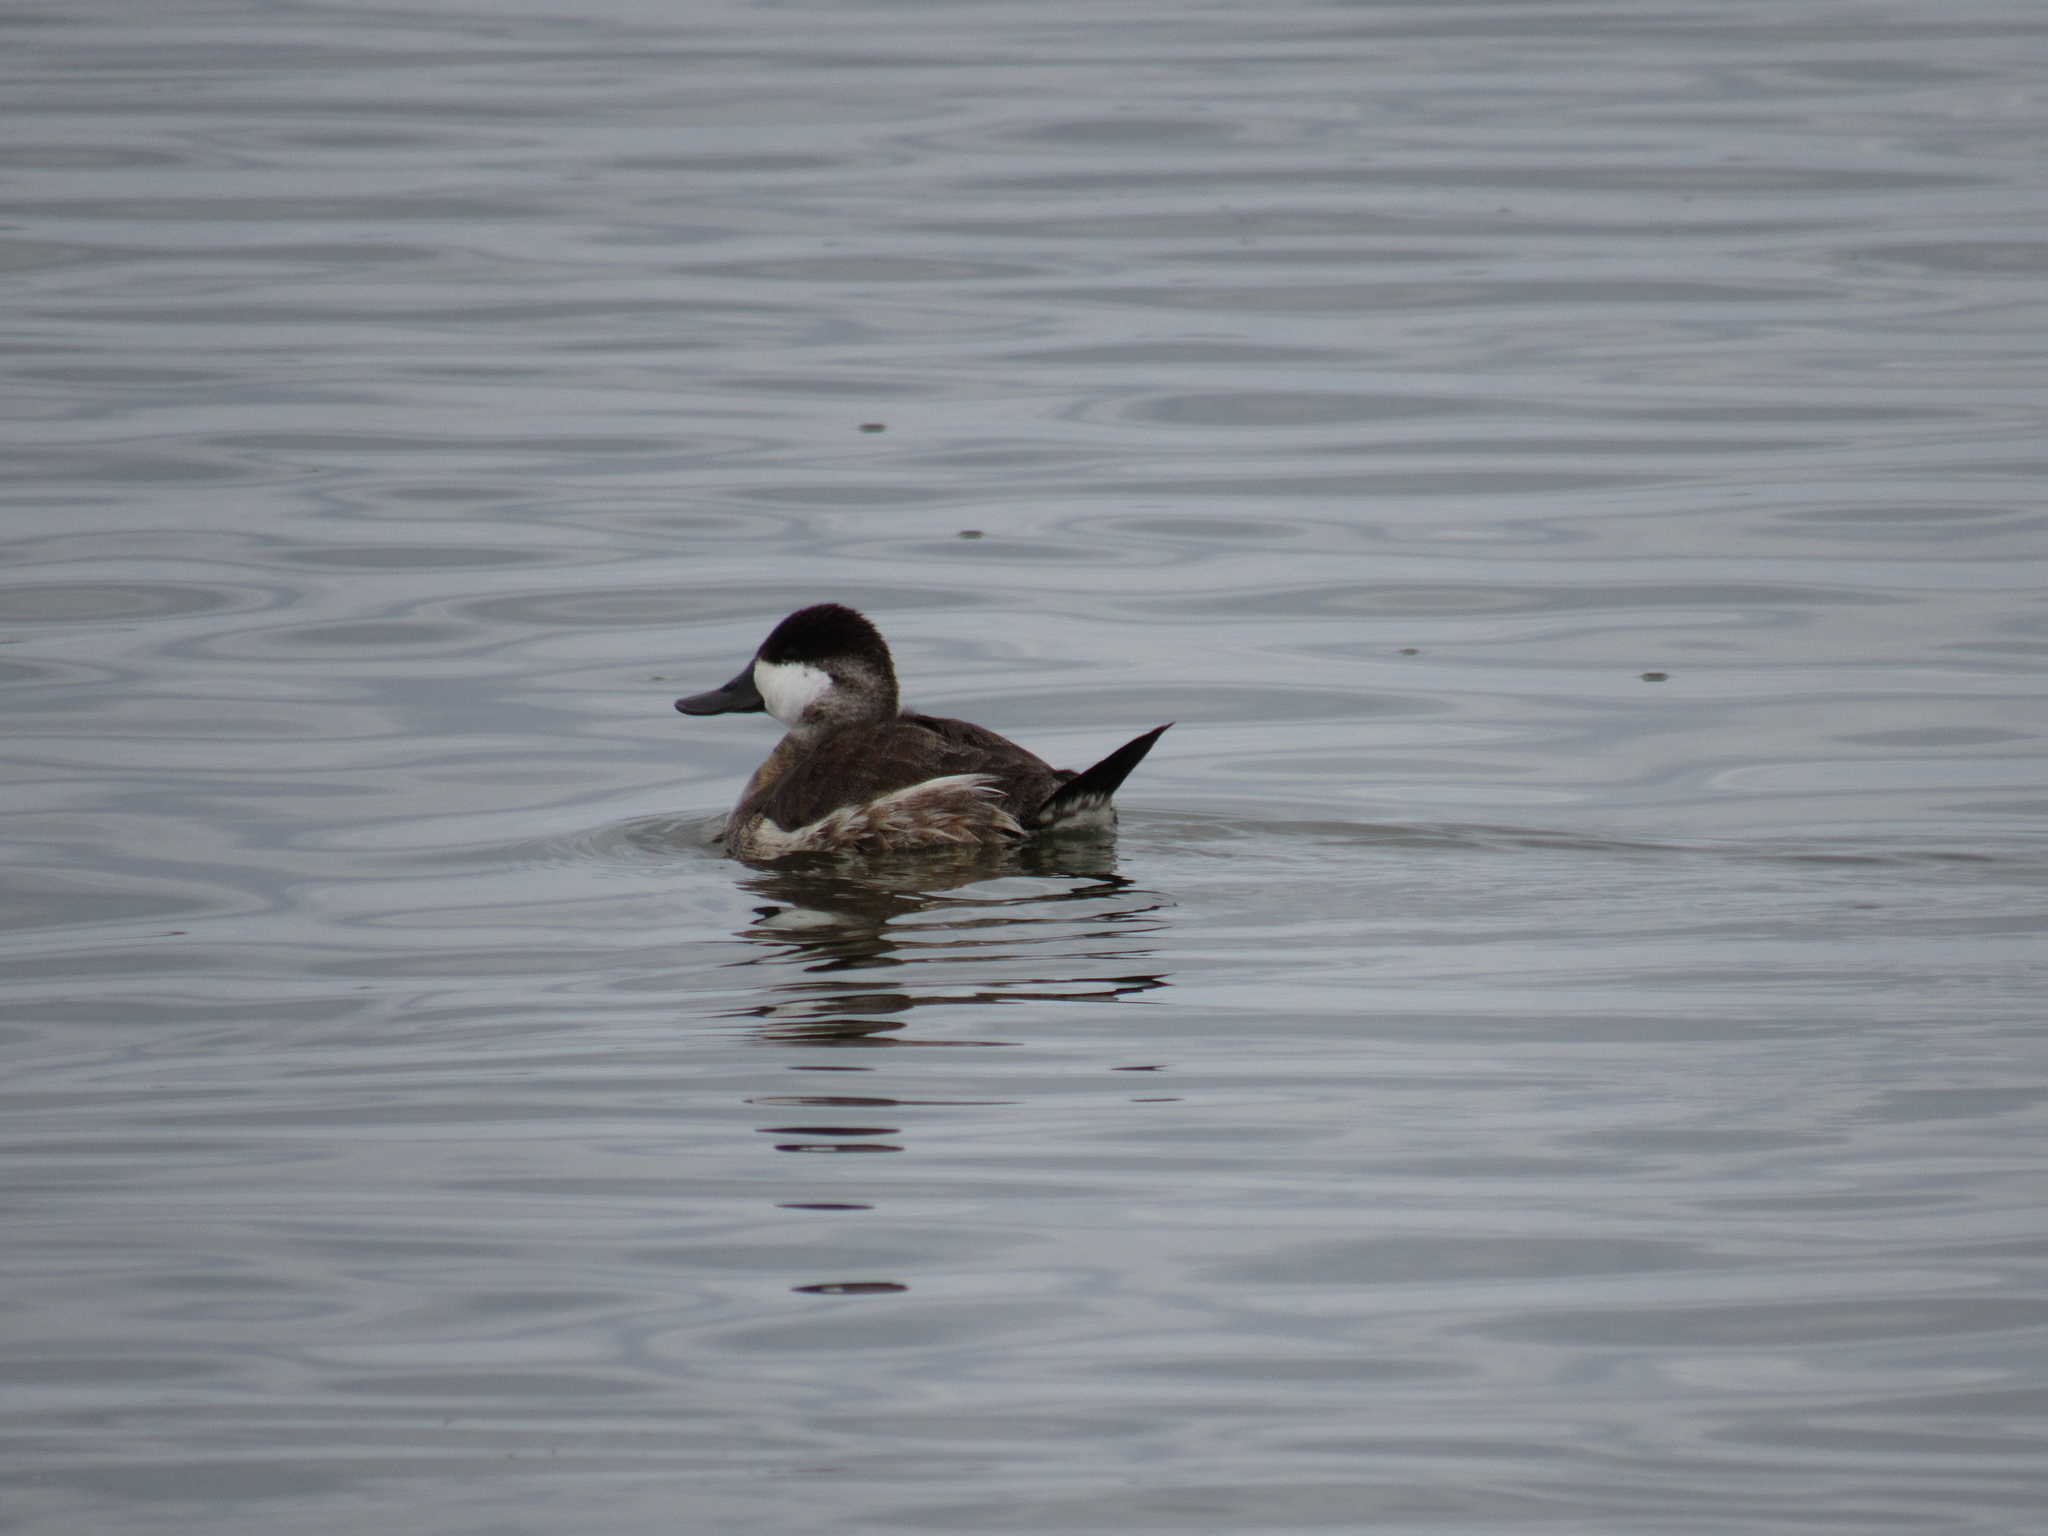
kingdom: Animalia
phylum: Chordata
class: Aves
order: Anseriformes
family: Anatidae
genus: Oxyura
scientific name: Oxyura jamaicensis
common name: Ruddy duck
